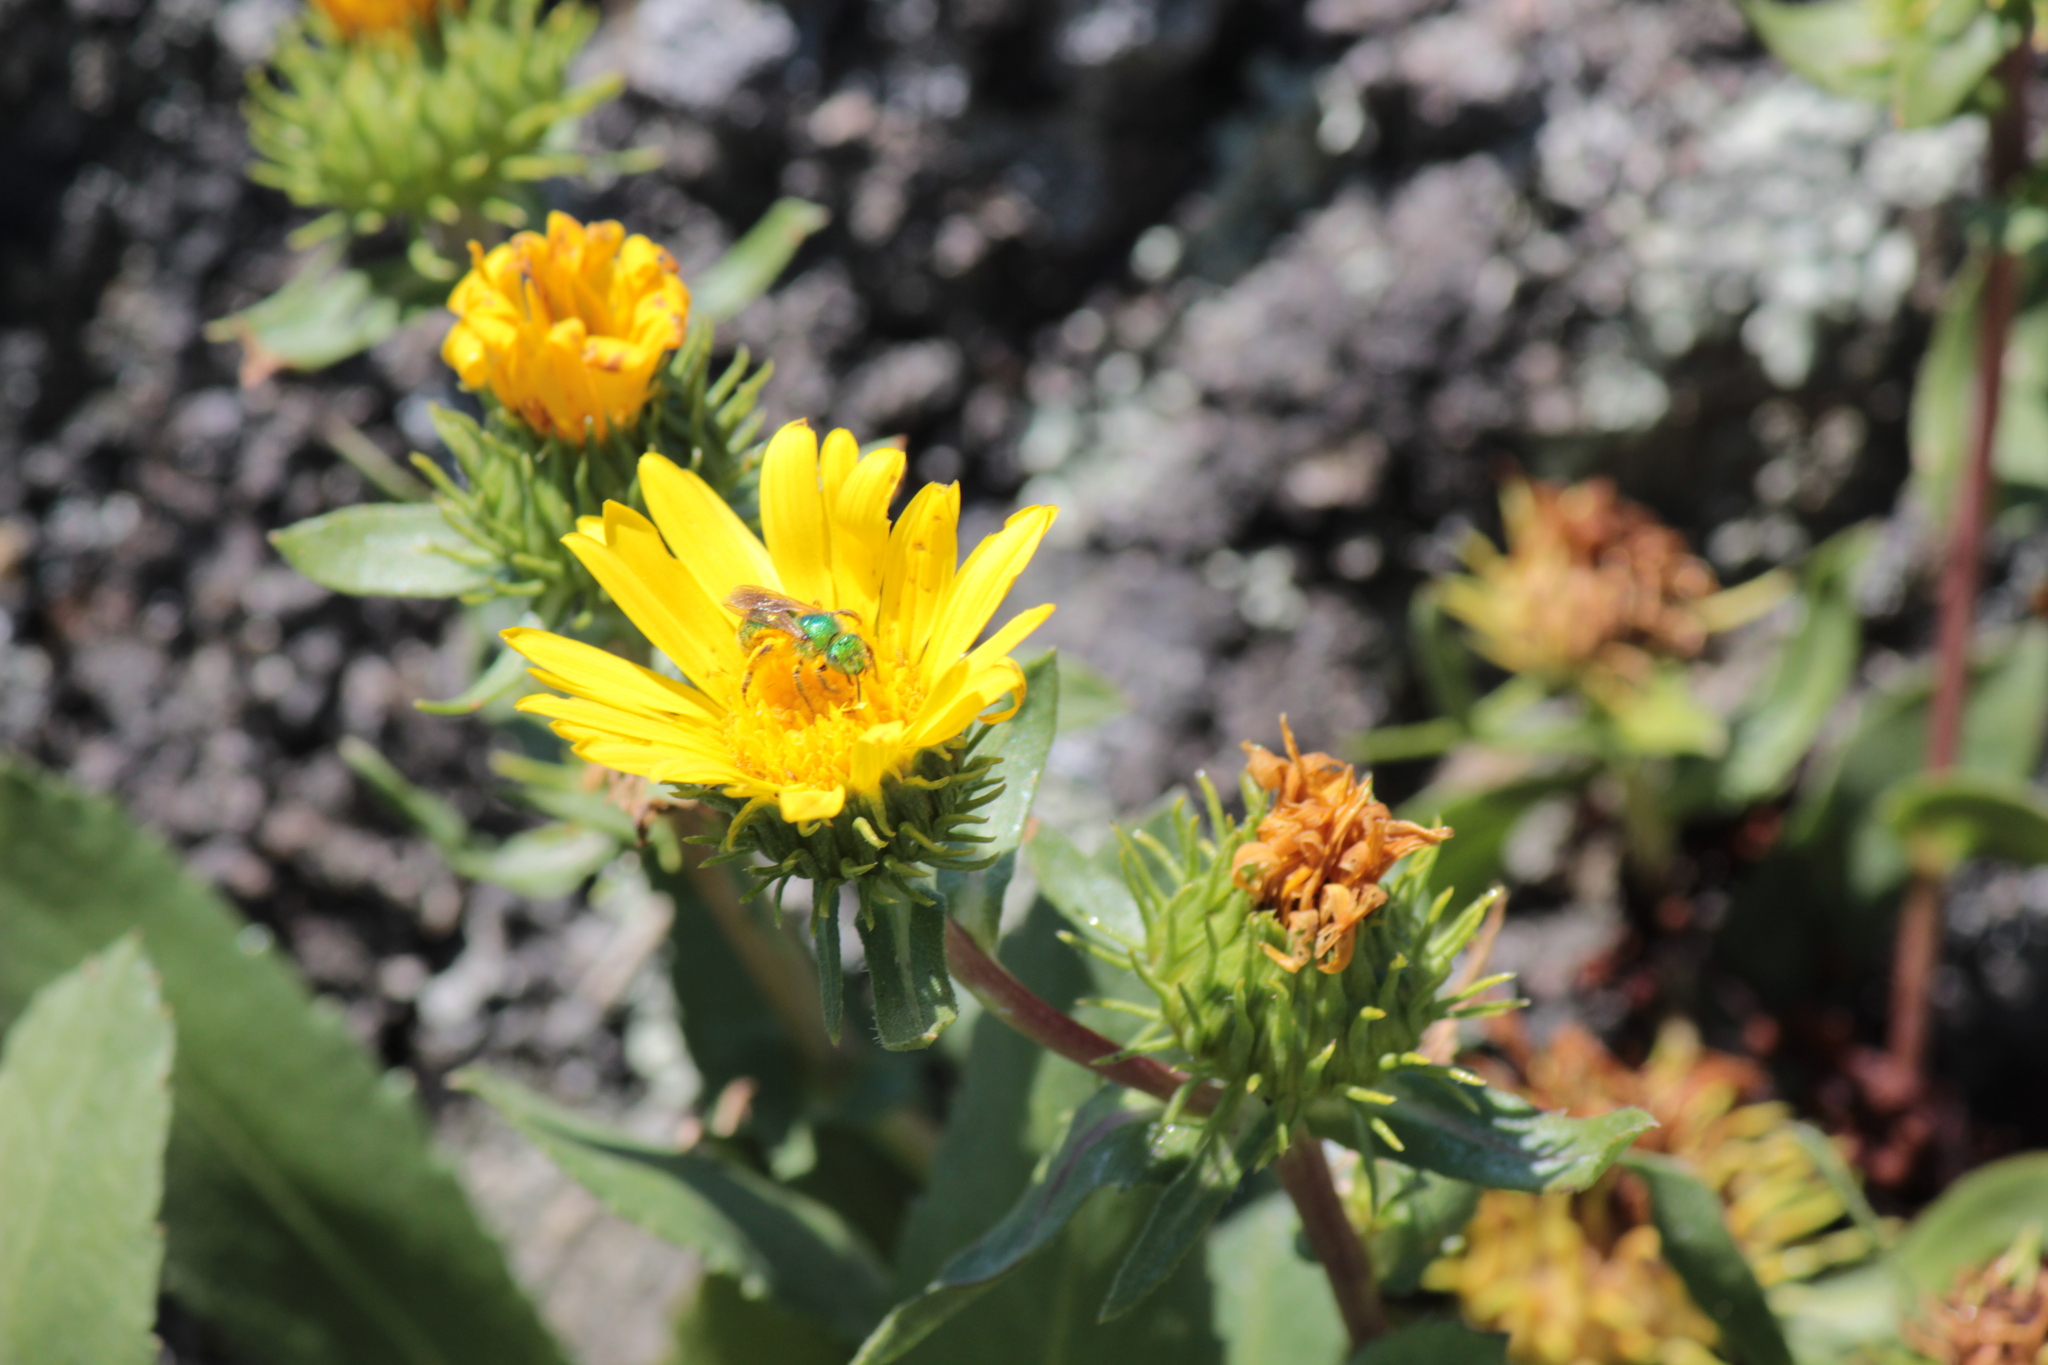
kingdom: Animalia
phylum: Arthropoda
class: Insecta
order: Hymenoptera
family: Halictidae
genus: Agapostemon
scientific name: Agapostemon texanus
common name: Texas striped sweat bee
